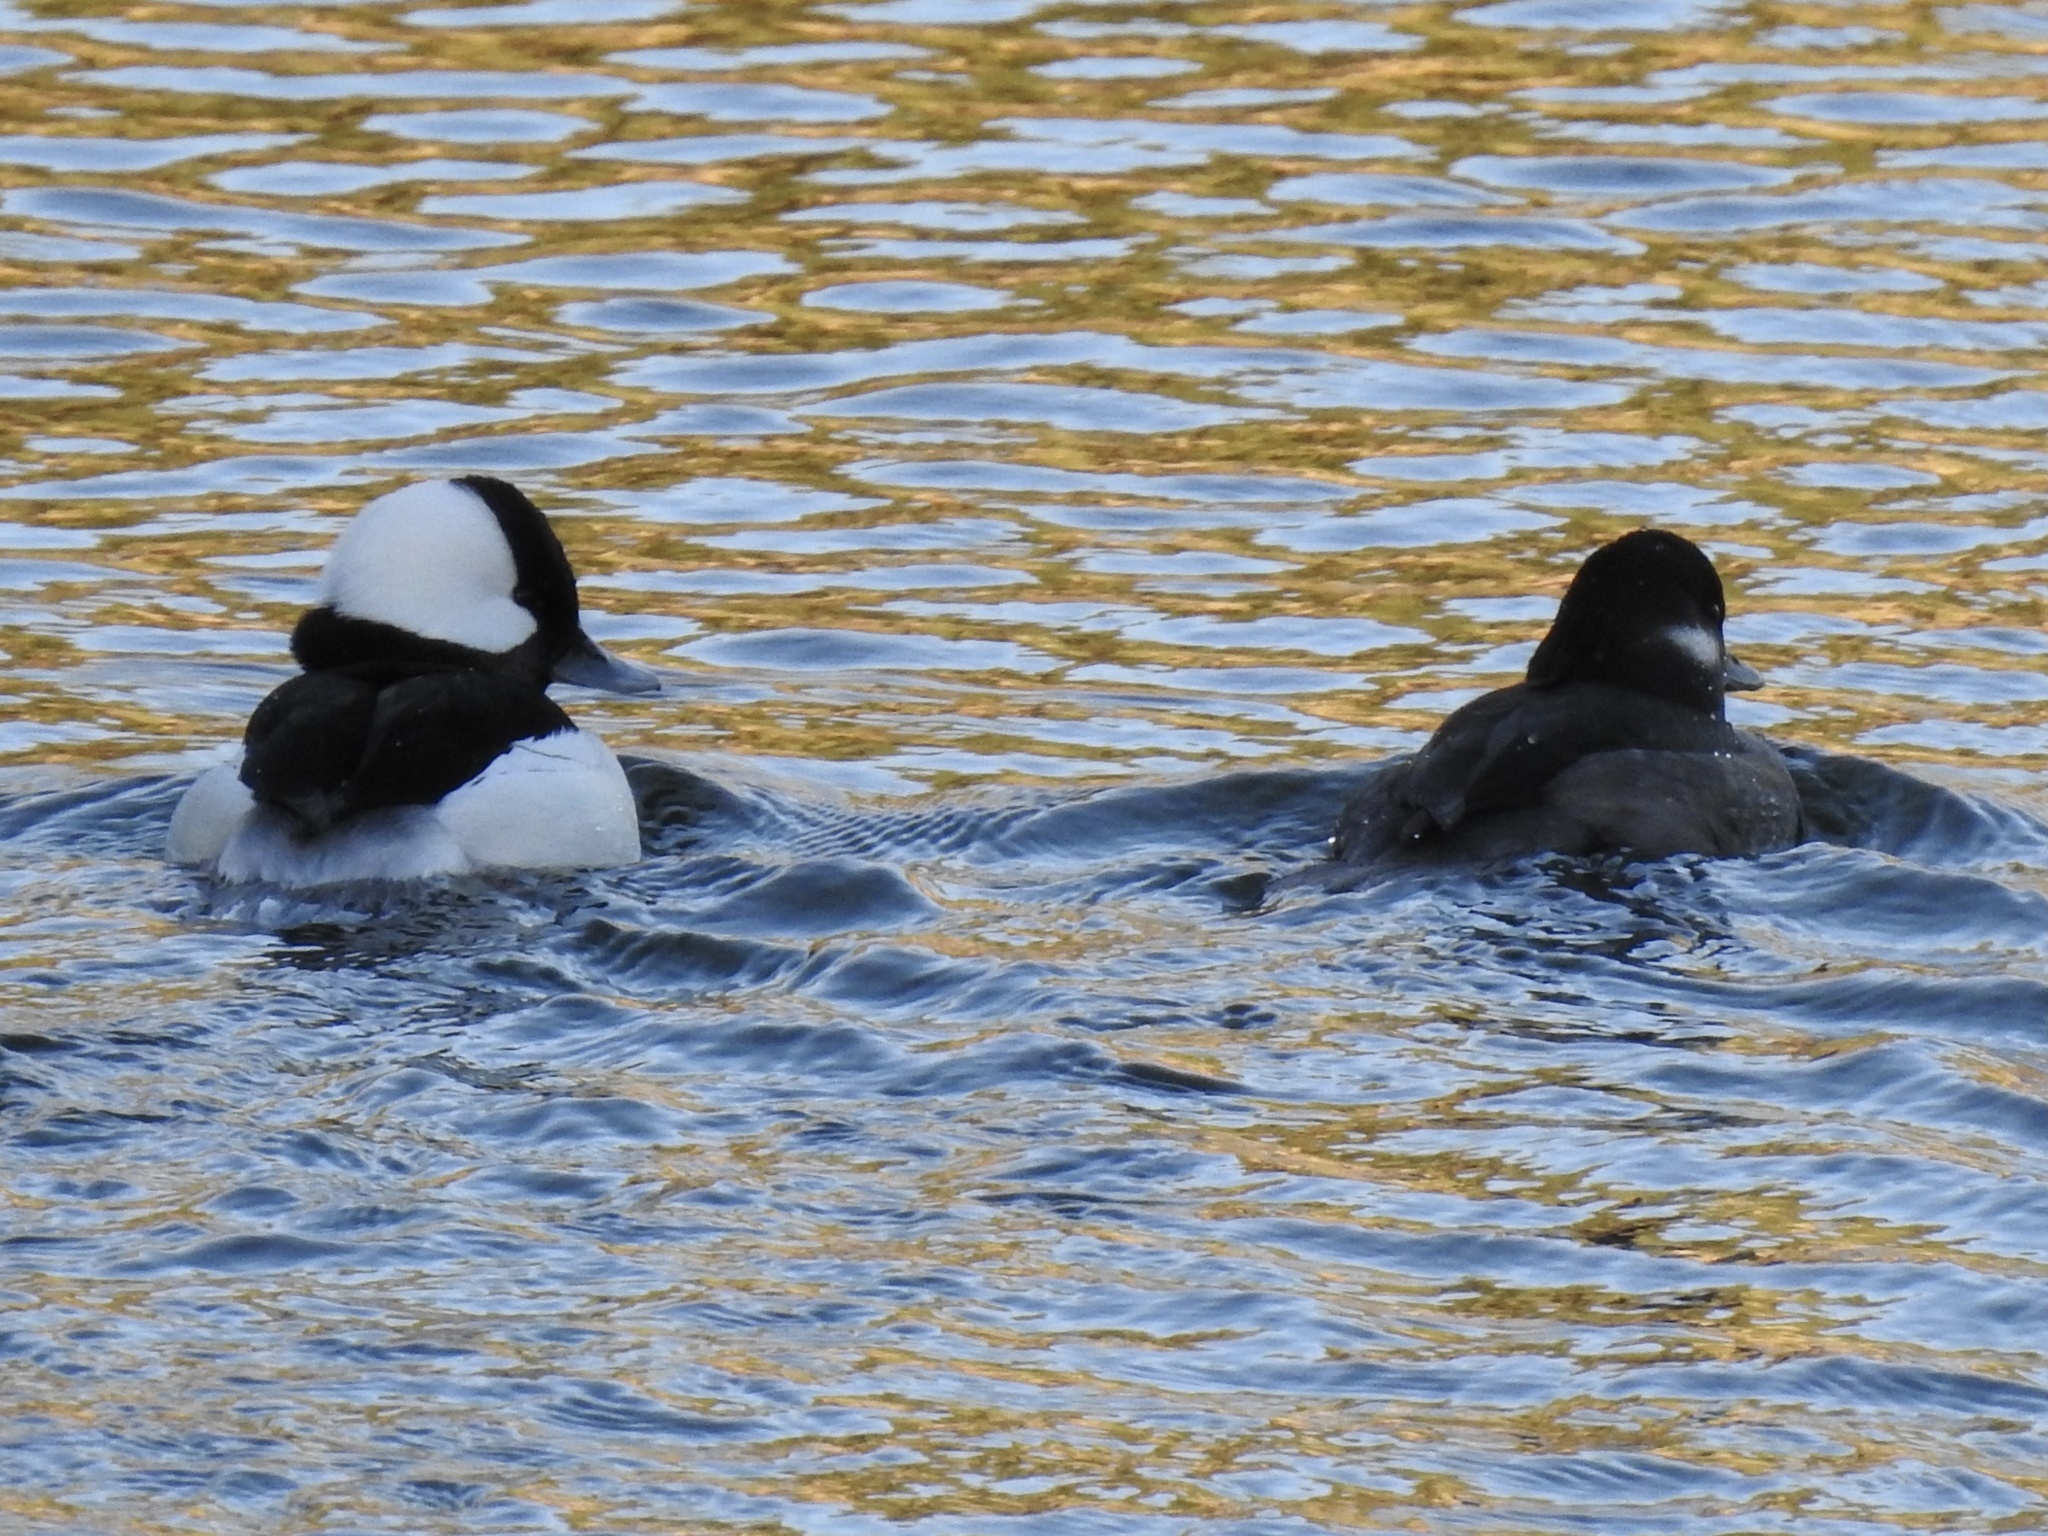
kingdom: Animalia
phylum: Chordata
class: Aves
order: Anseriformes
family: Anatidae
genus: Bucephala
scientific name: Bucephala albeola
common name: Bufflehead
